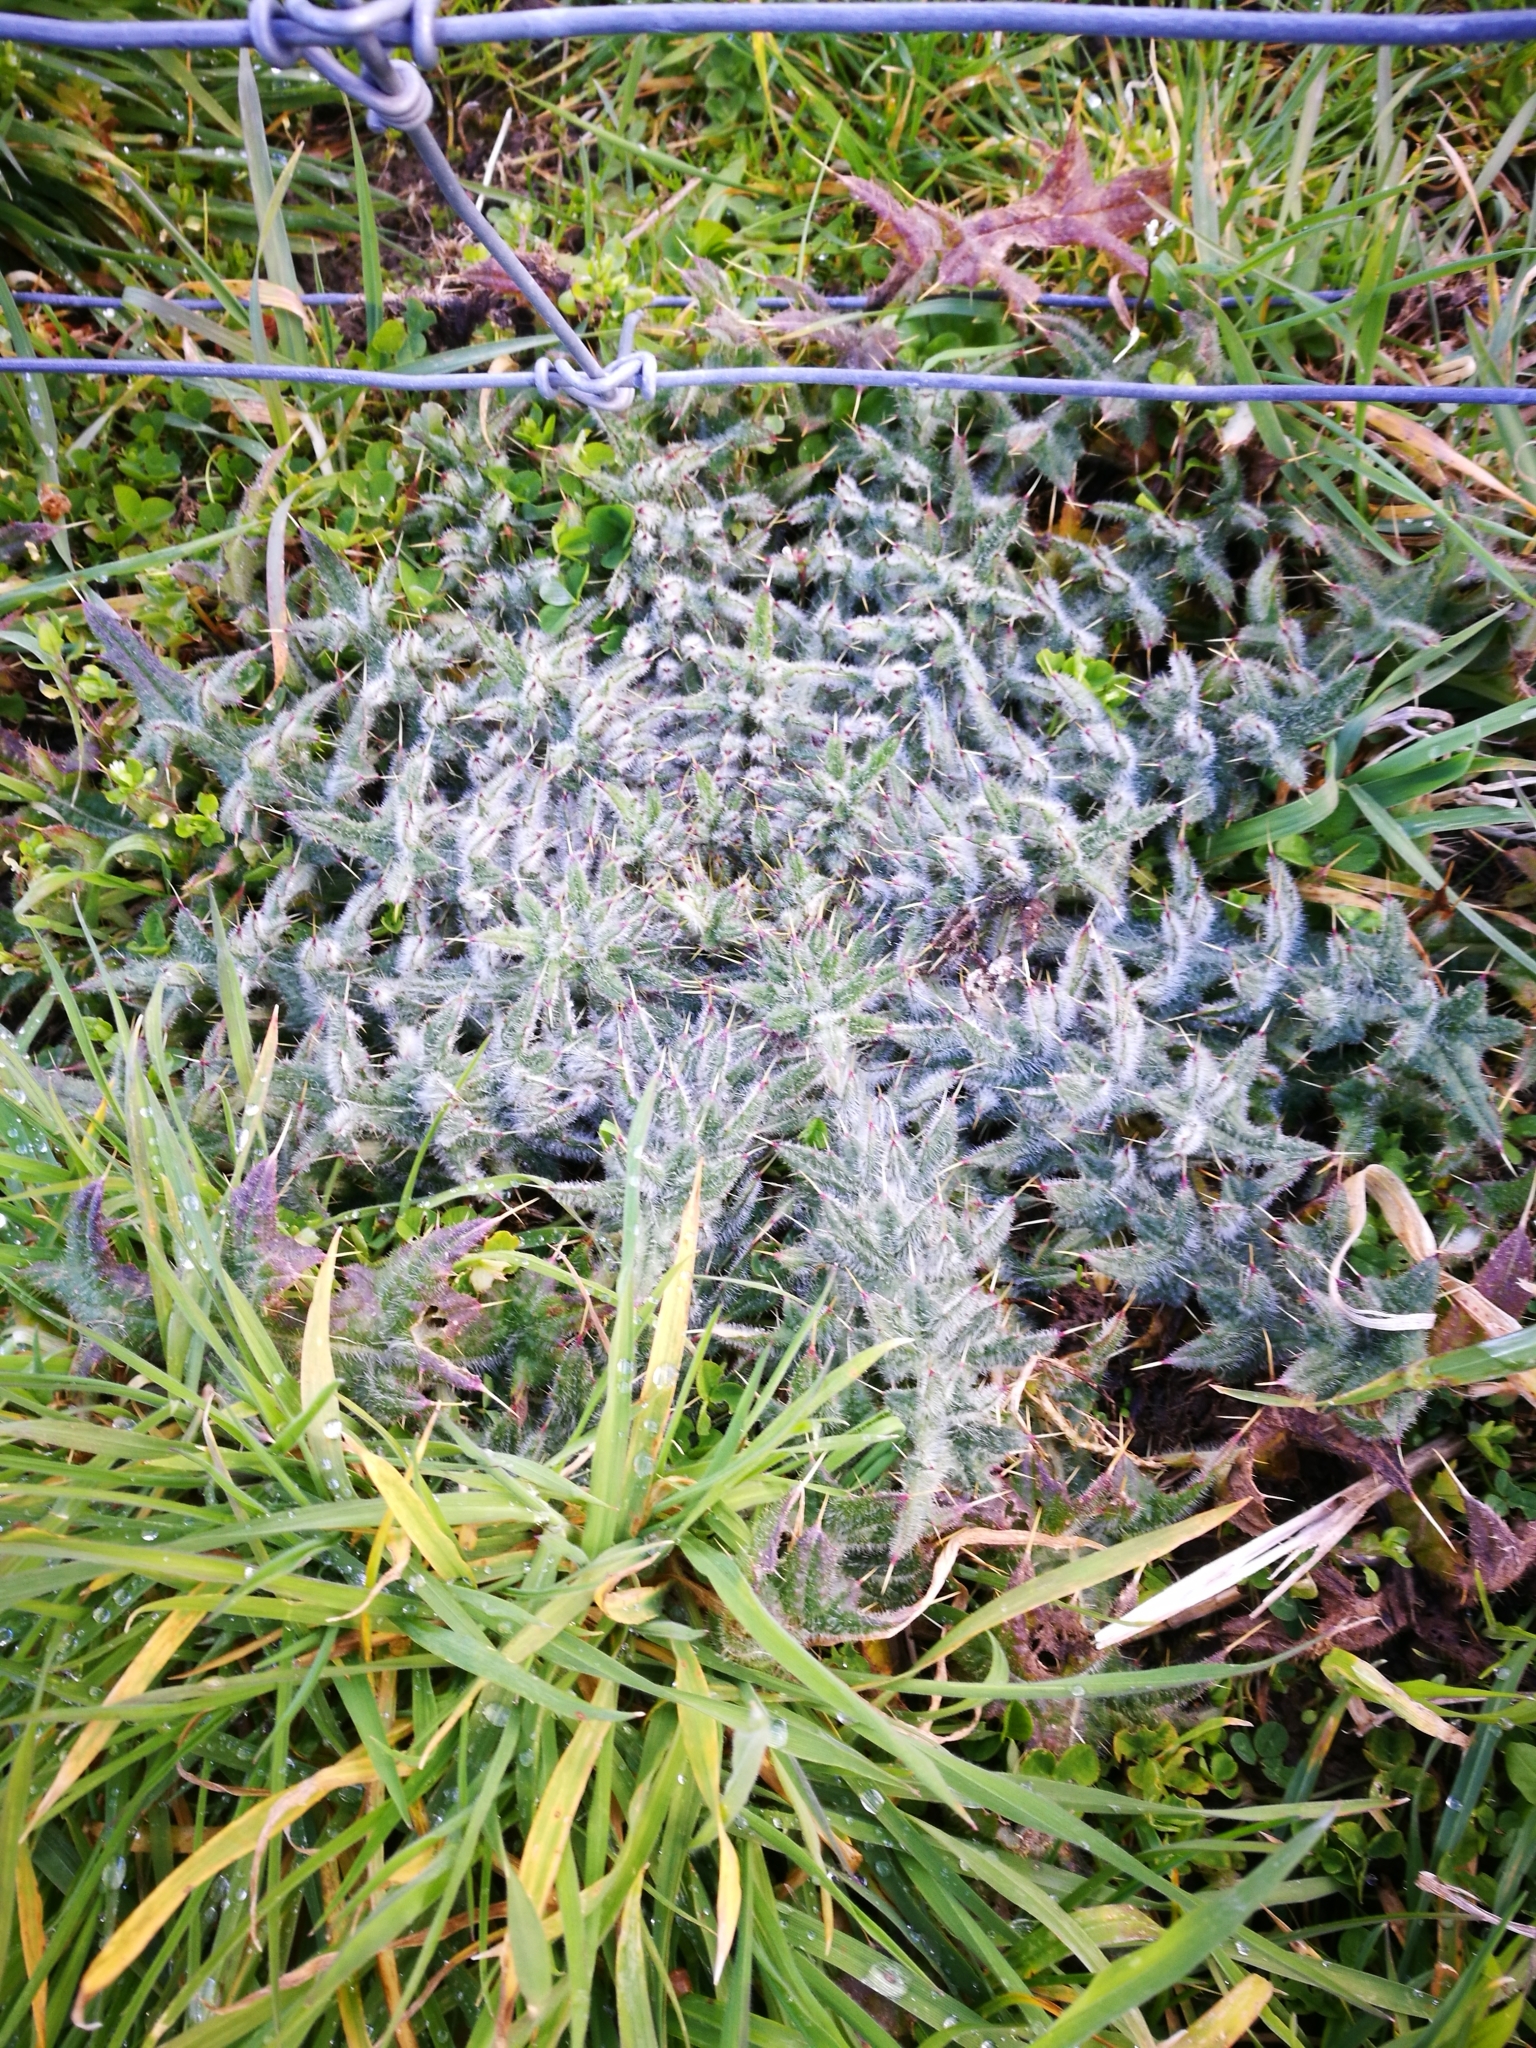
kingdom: Plantae
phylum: Tracheophyta
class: Magnoliopsida
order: Asterales
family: Asteraceae
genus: Cirsium
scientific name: Cirsium vulgare
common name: Bull thistle
